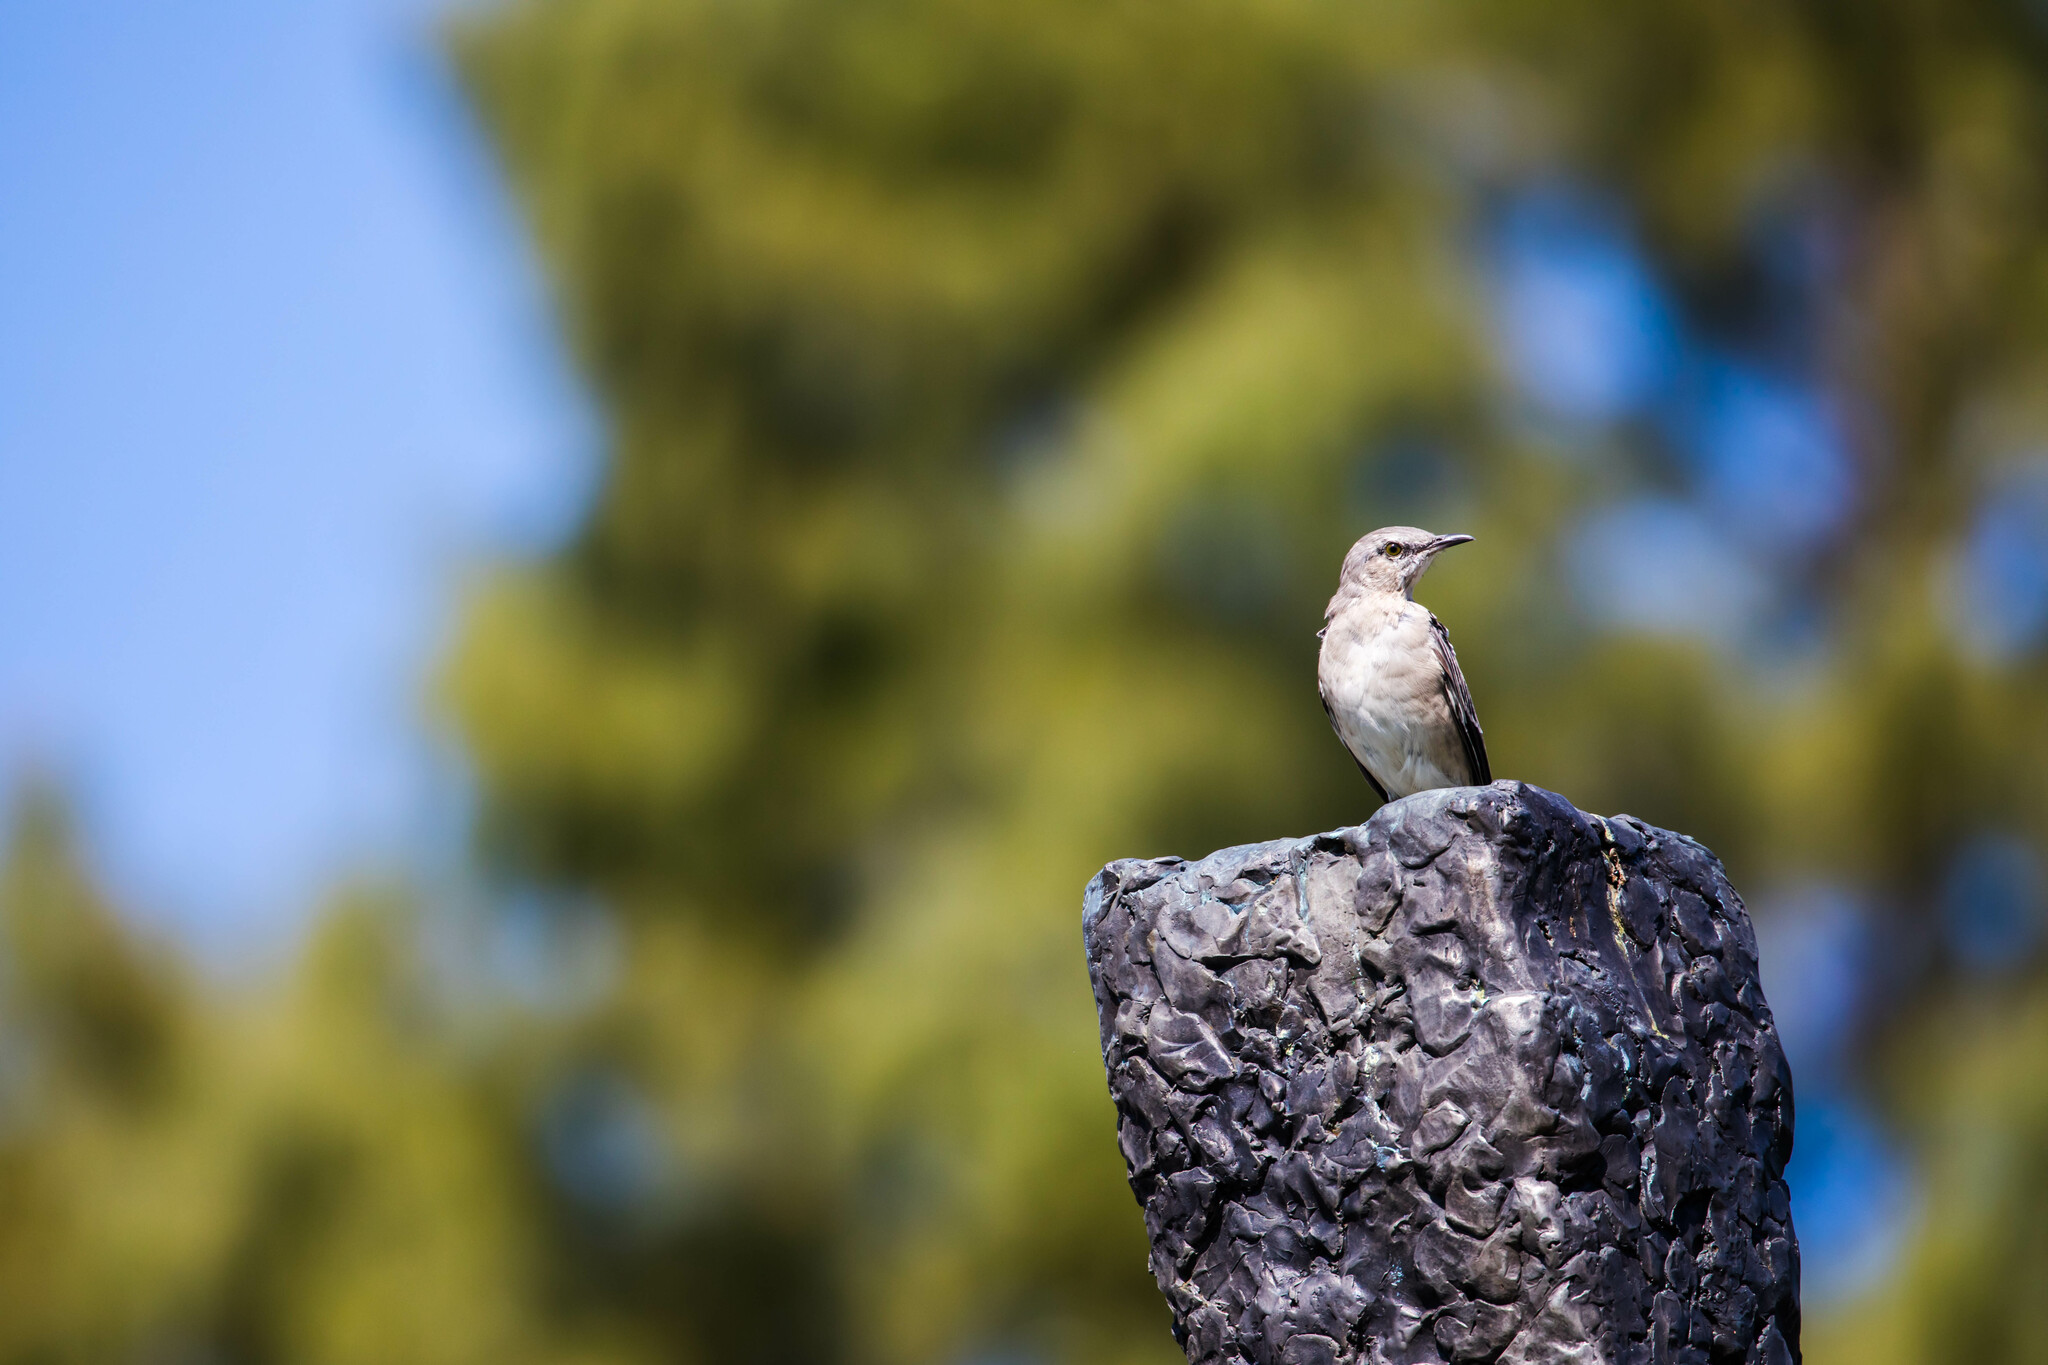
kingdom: Animalia
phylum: Chordata
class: Aves
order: Passeriformes
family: Mimidae
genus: Mimus
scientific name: Mimus polyglottos
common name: Northern mockingbird
